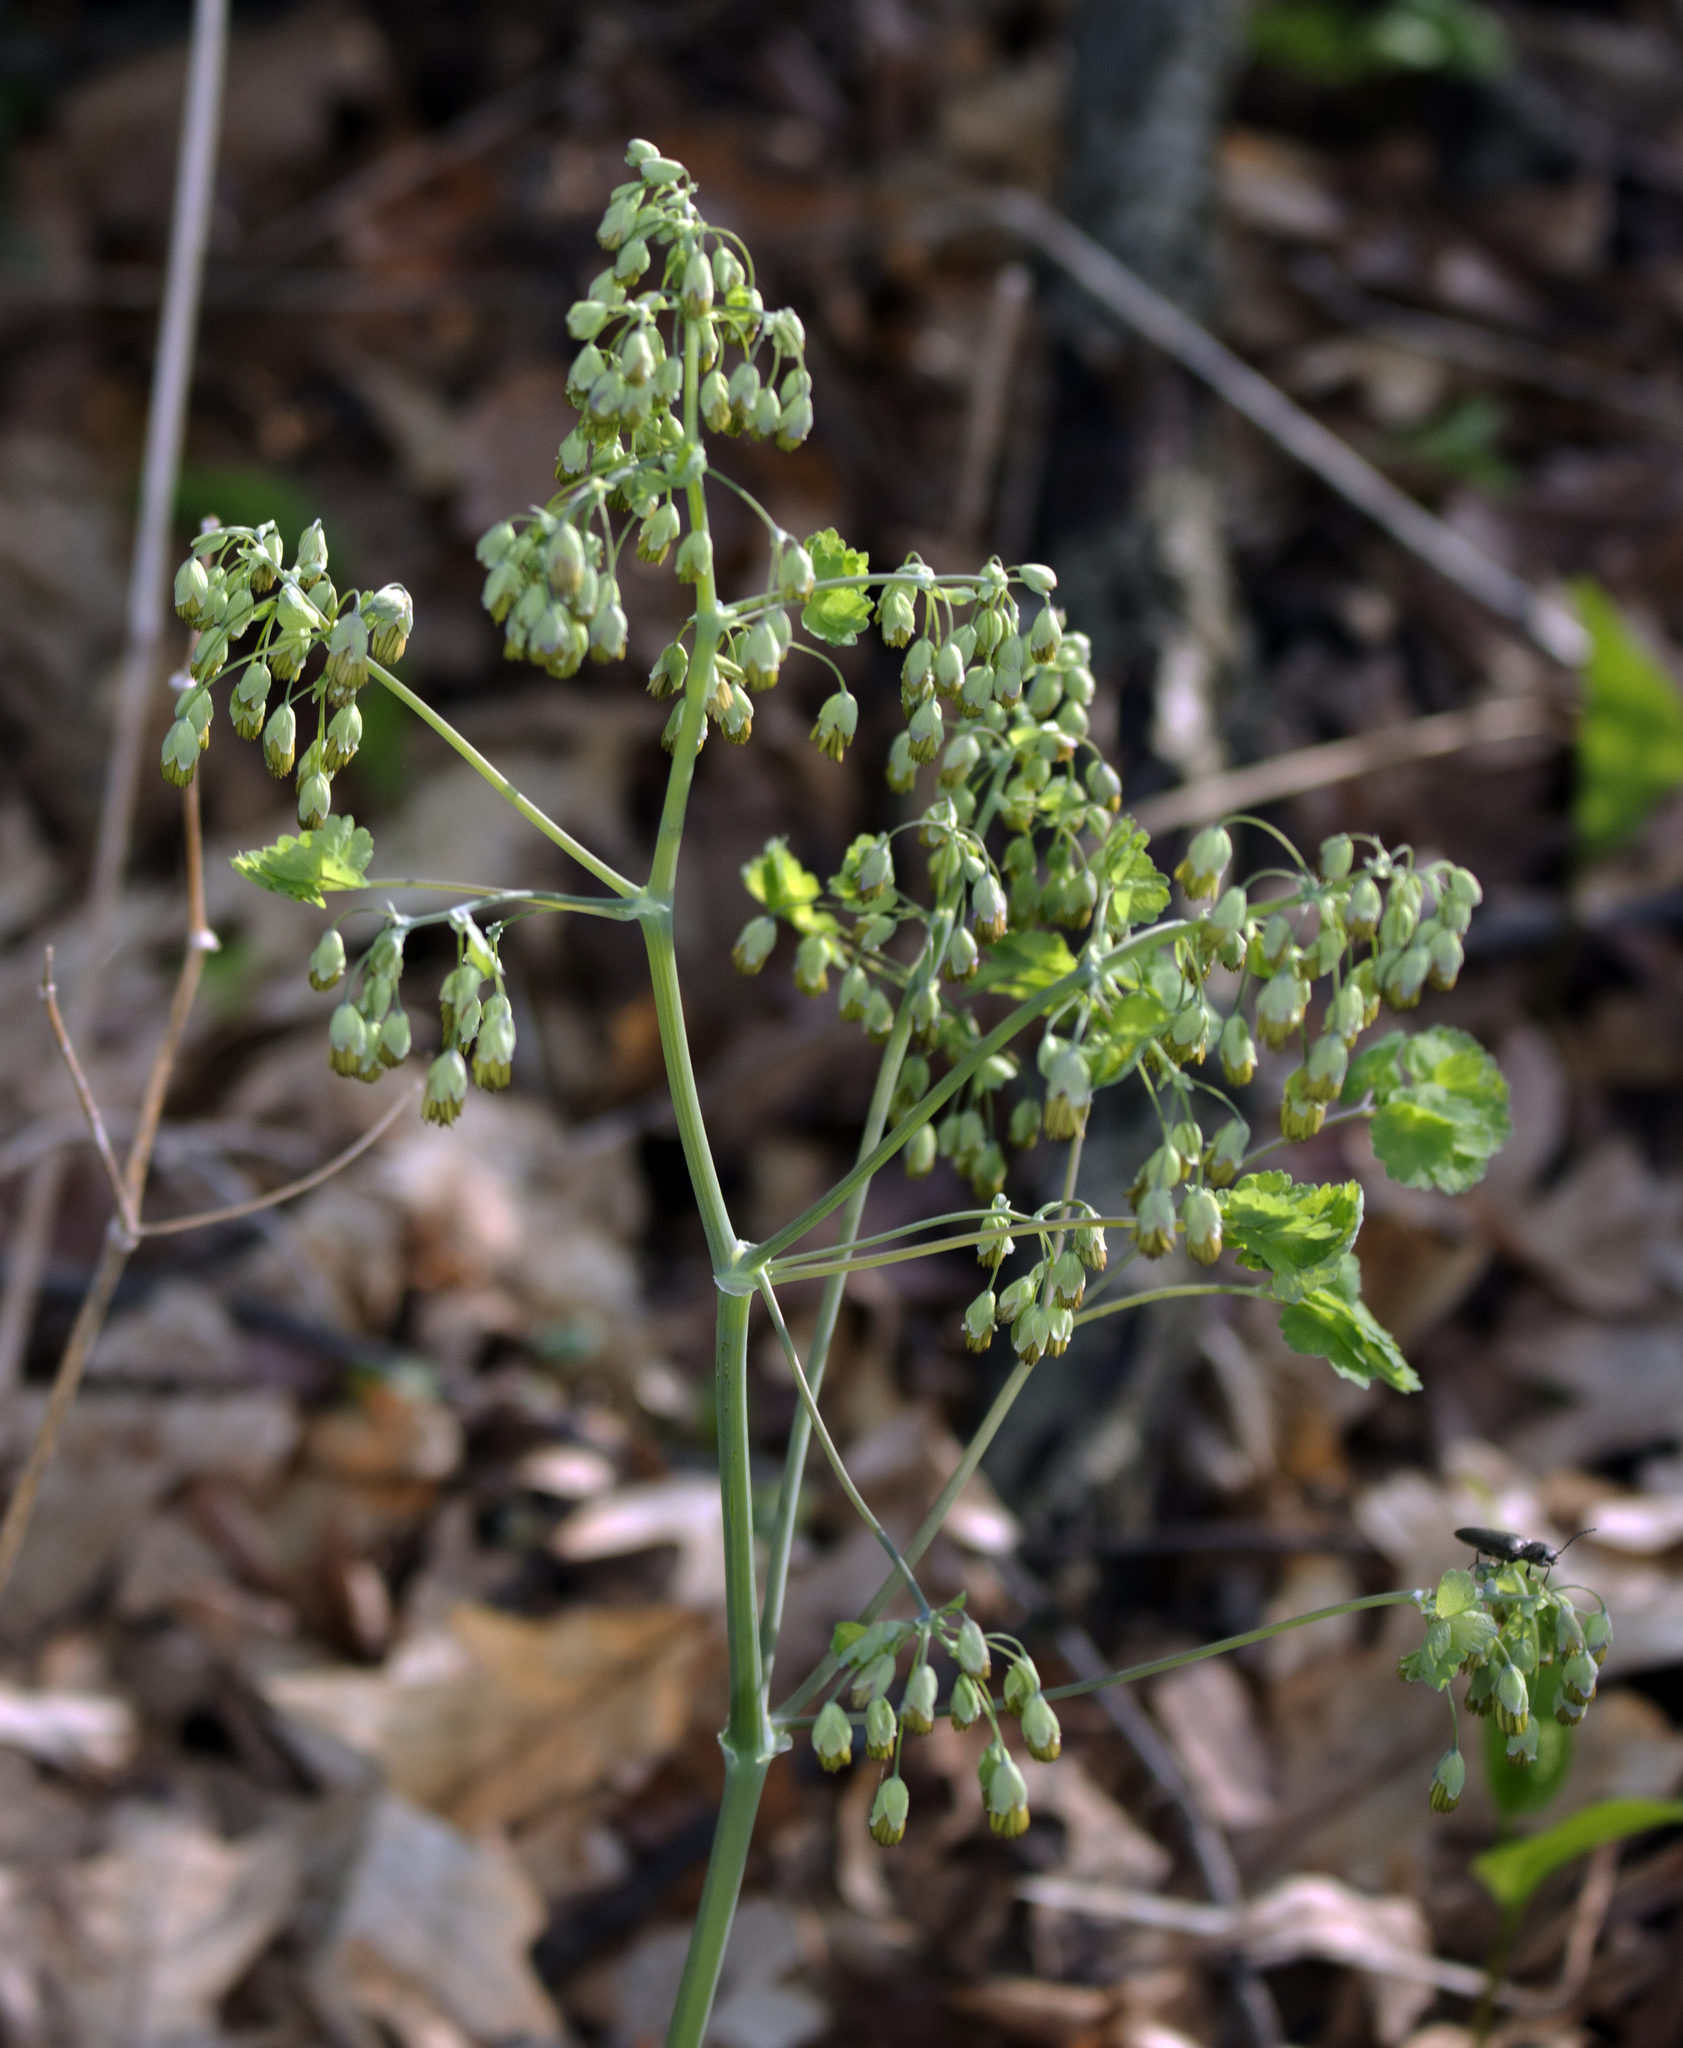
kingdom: Plantae
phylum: Tracheophyta
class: Magnoliopsida
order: Ranunculales
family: Ranunculaceae
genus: Thalictrum
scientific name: Thalictrum dioicum
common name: Early meadow-rue
